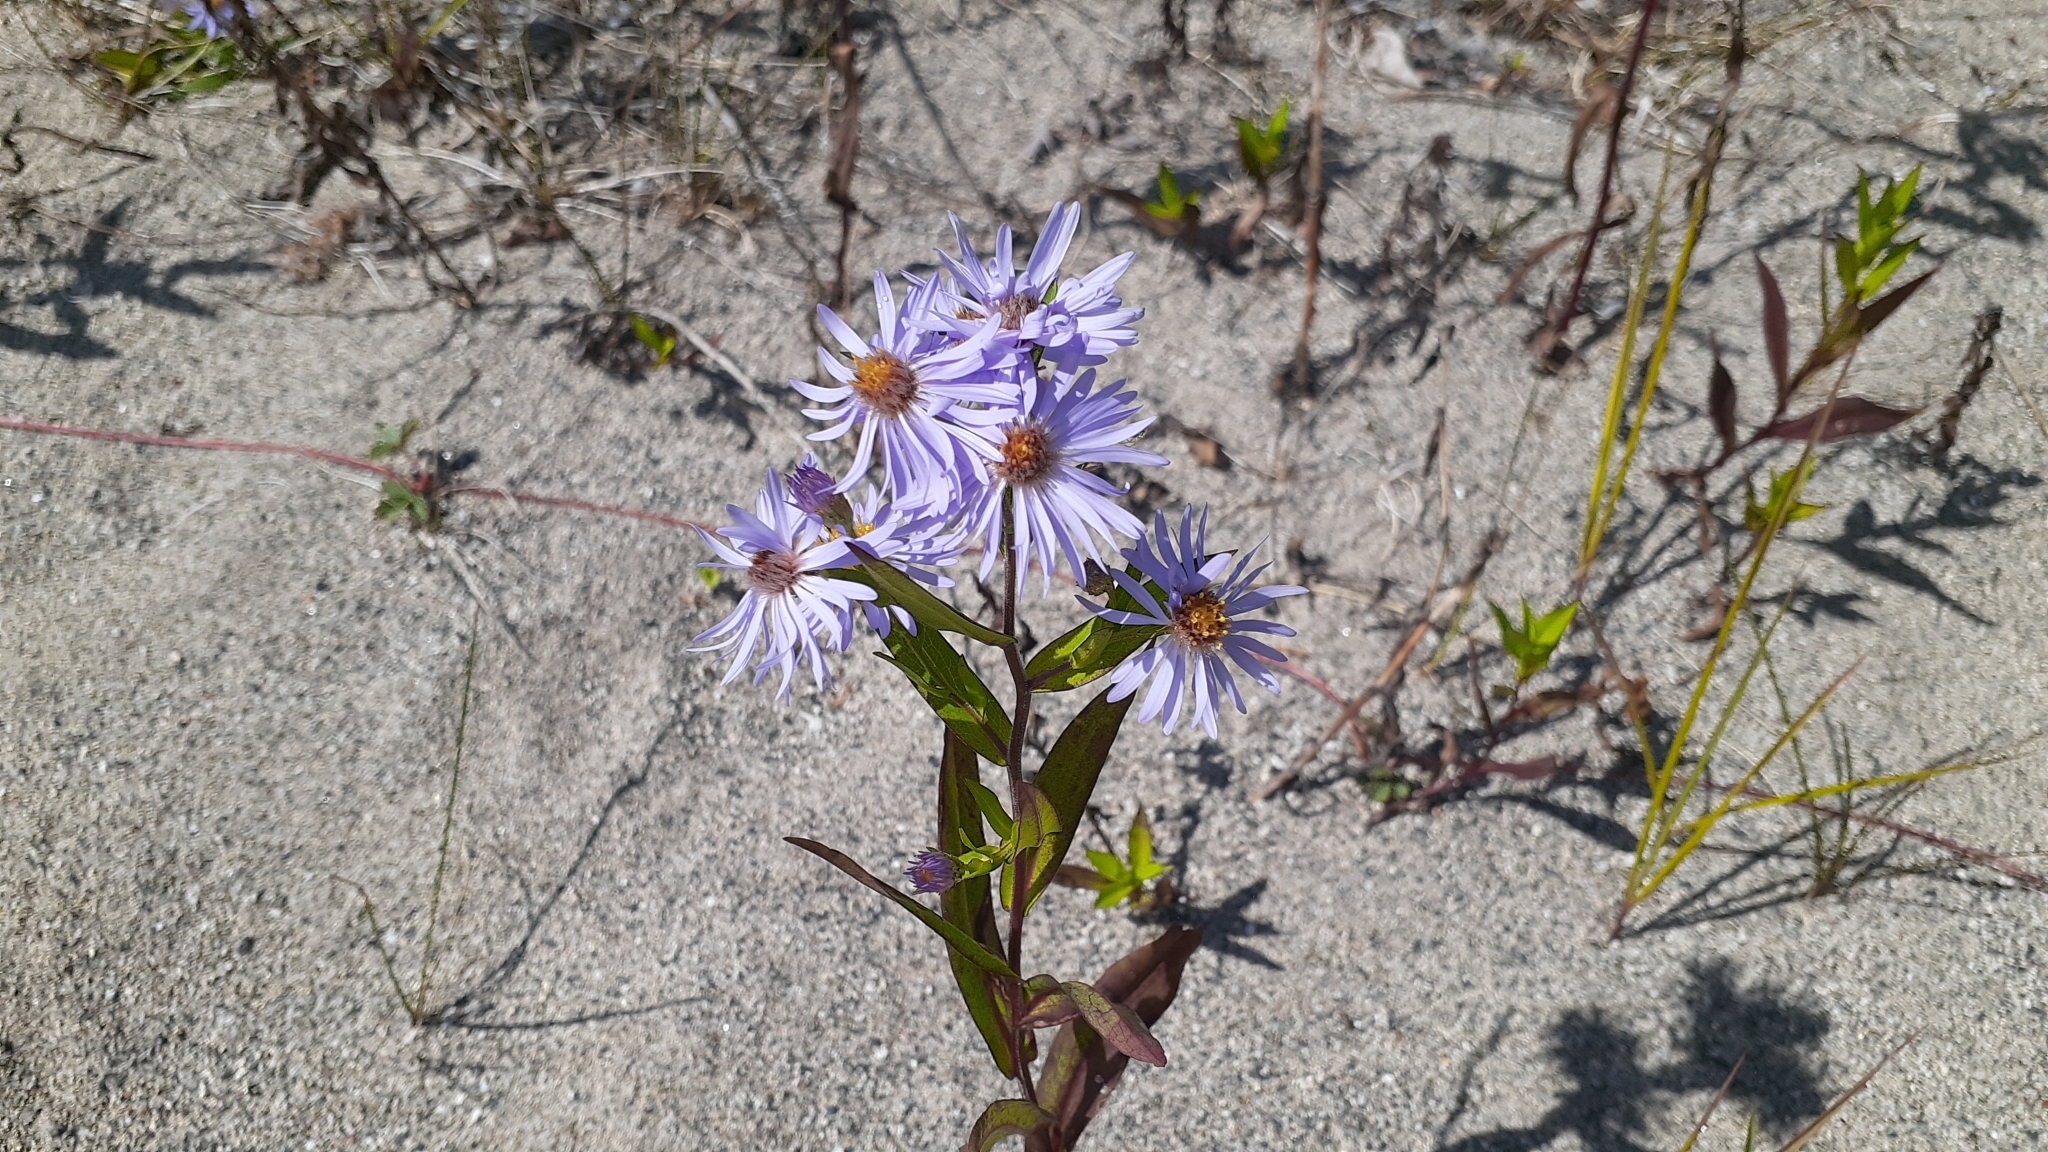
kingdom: Plantae
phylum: Tracheophyta
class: Magnoliopsida
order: Asterales
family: Asteraceae
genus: Symphyotrichum
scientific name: Symphyotrichum robynsianum
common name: Robyns' aster
